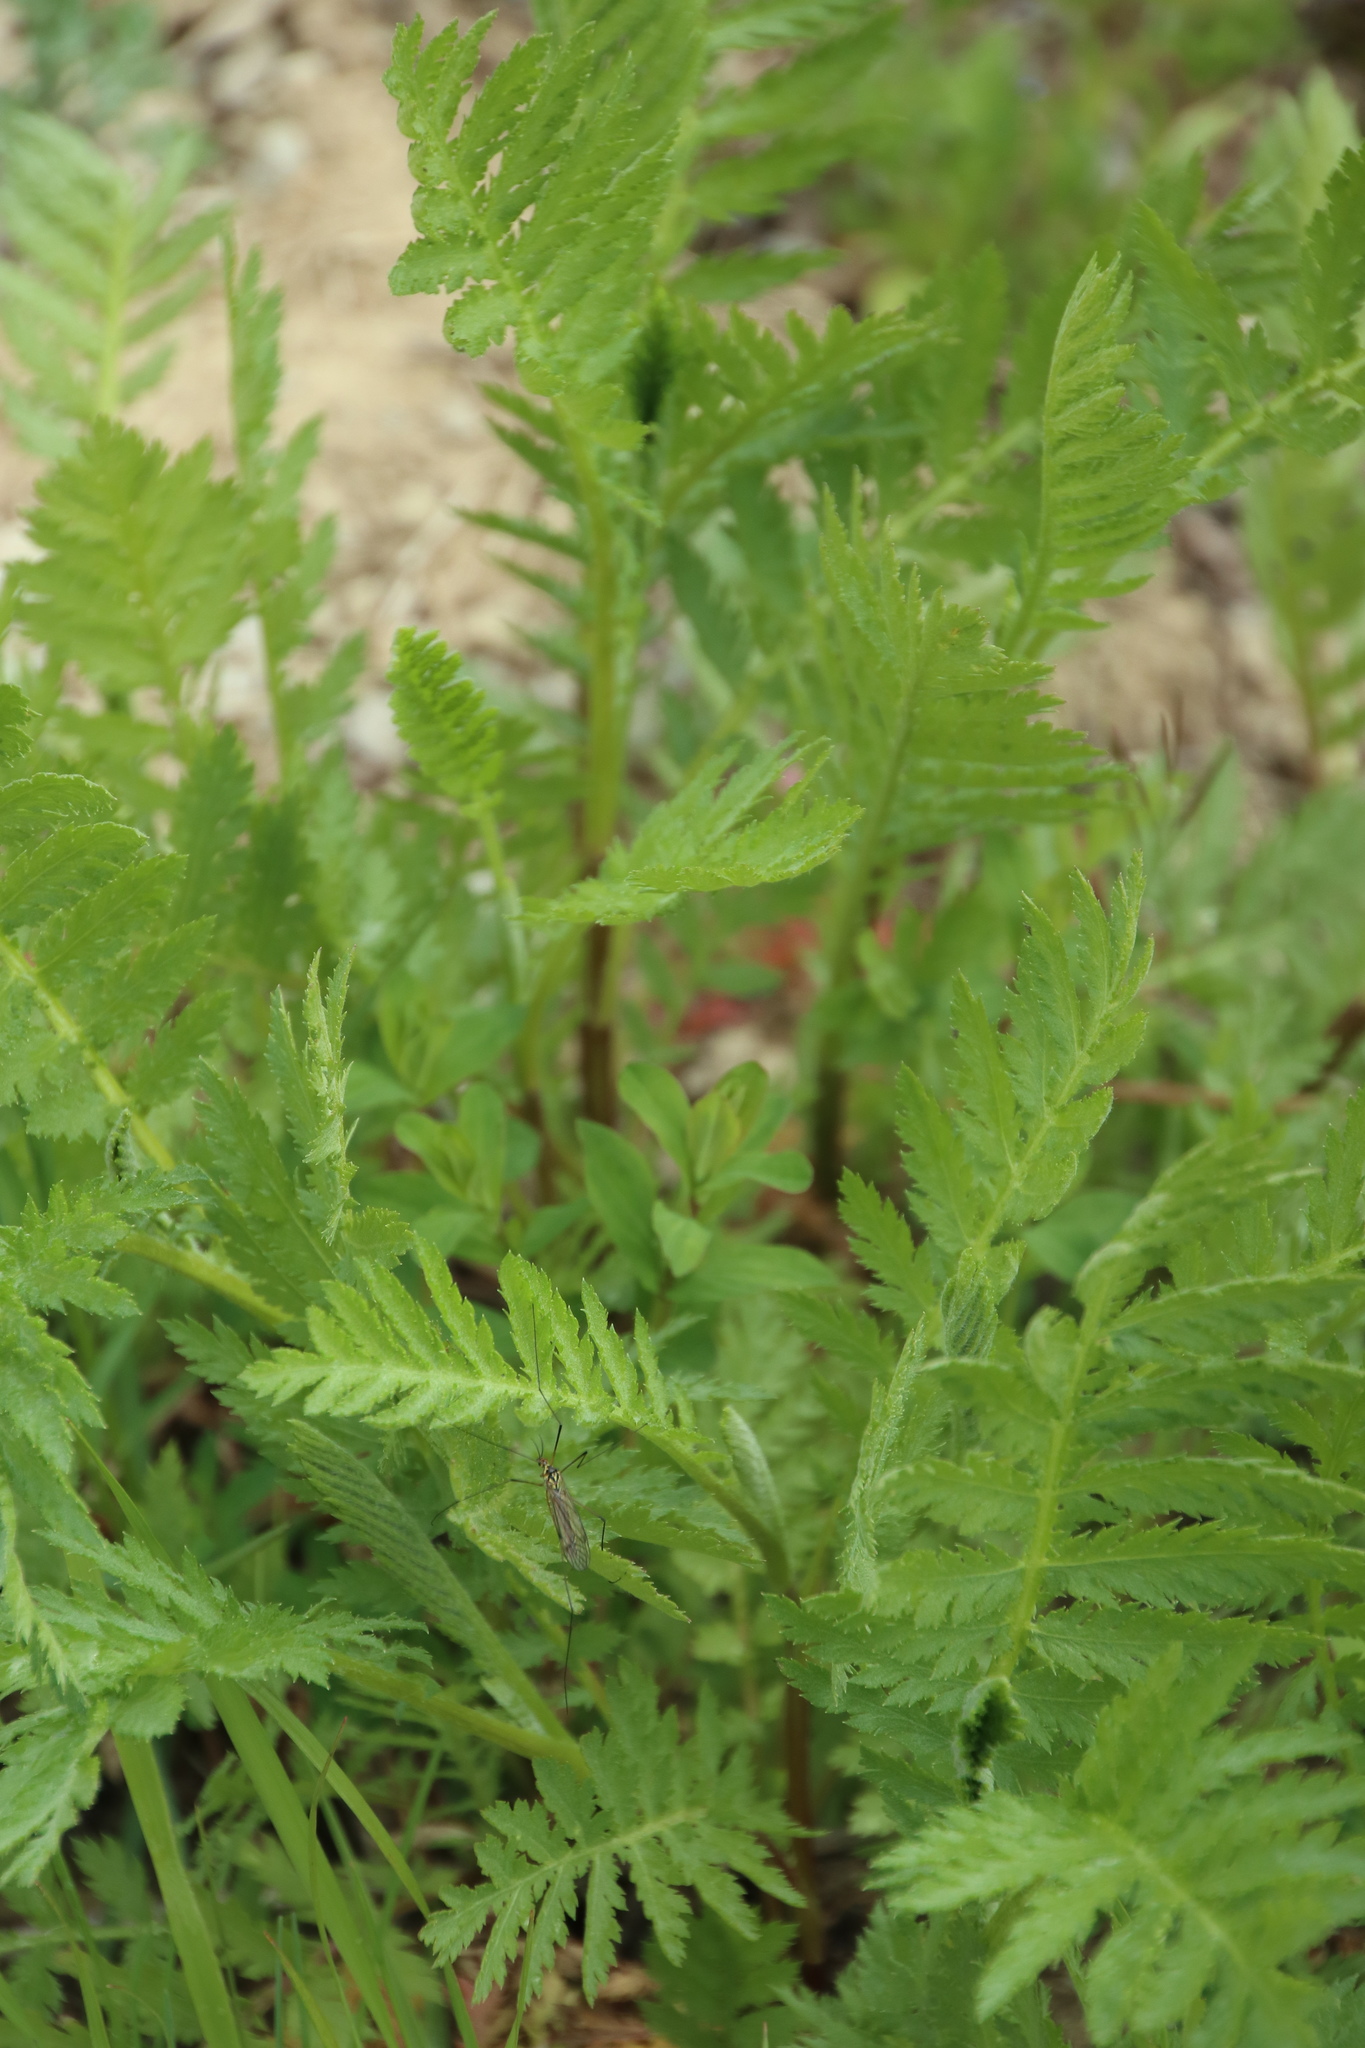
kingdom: Plantae
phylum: Tracheophyta
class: Magnoliopsida
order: Asterales
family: Asteraceae
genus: Tanacetum
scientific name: Tanacetum vulgare
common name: Common tansy
